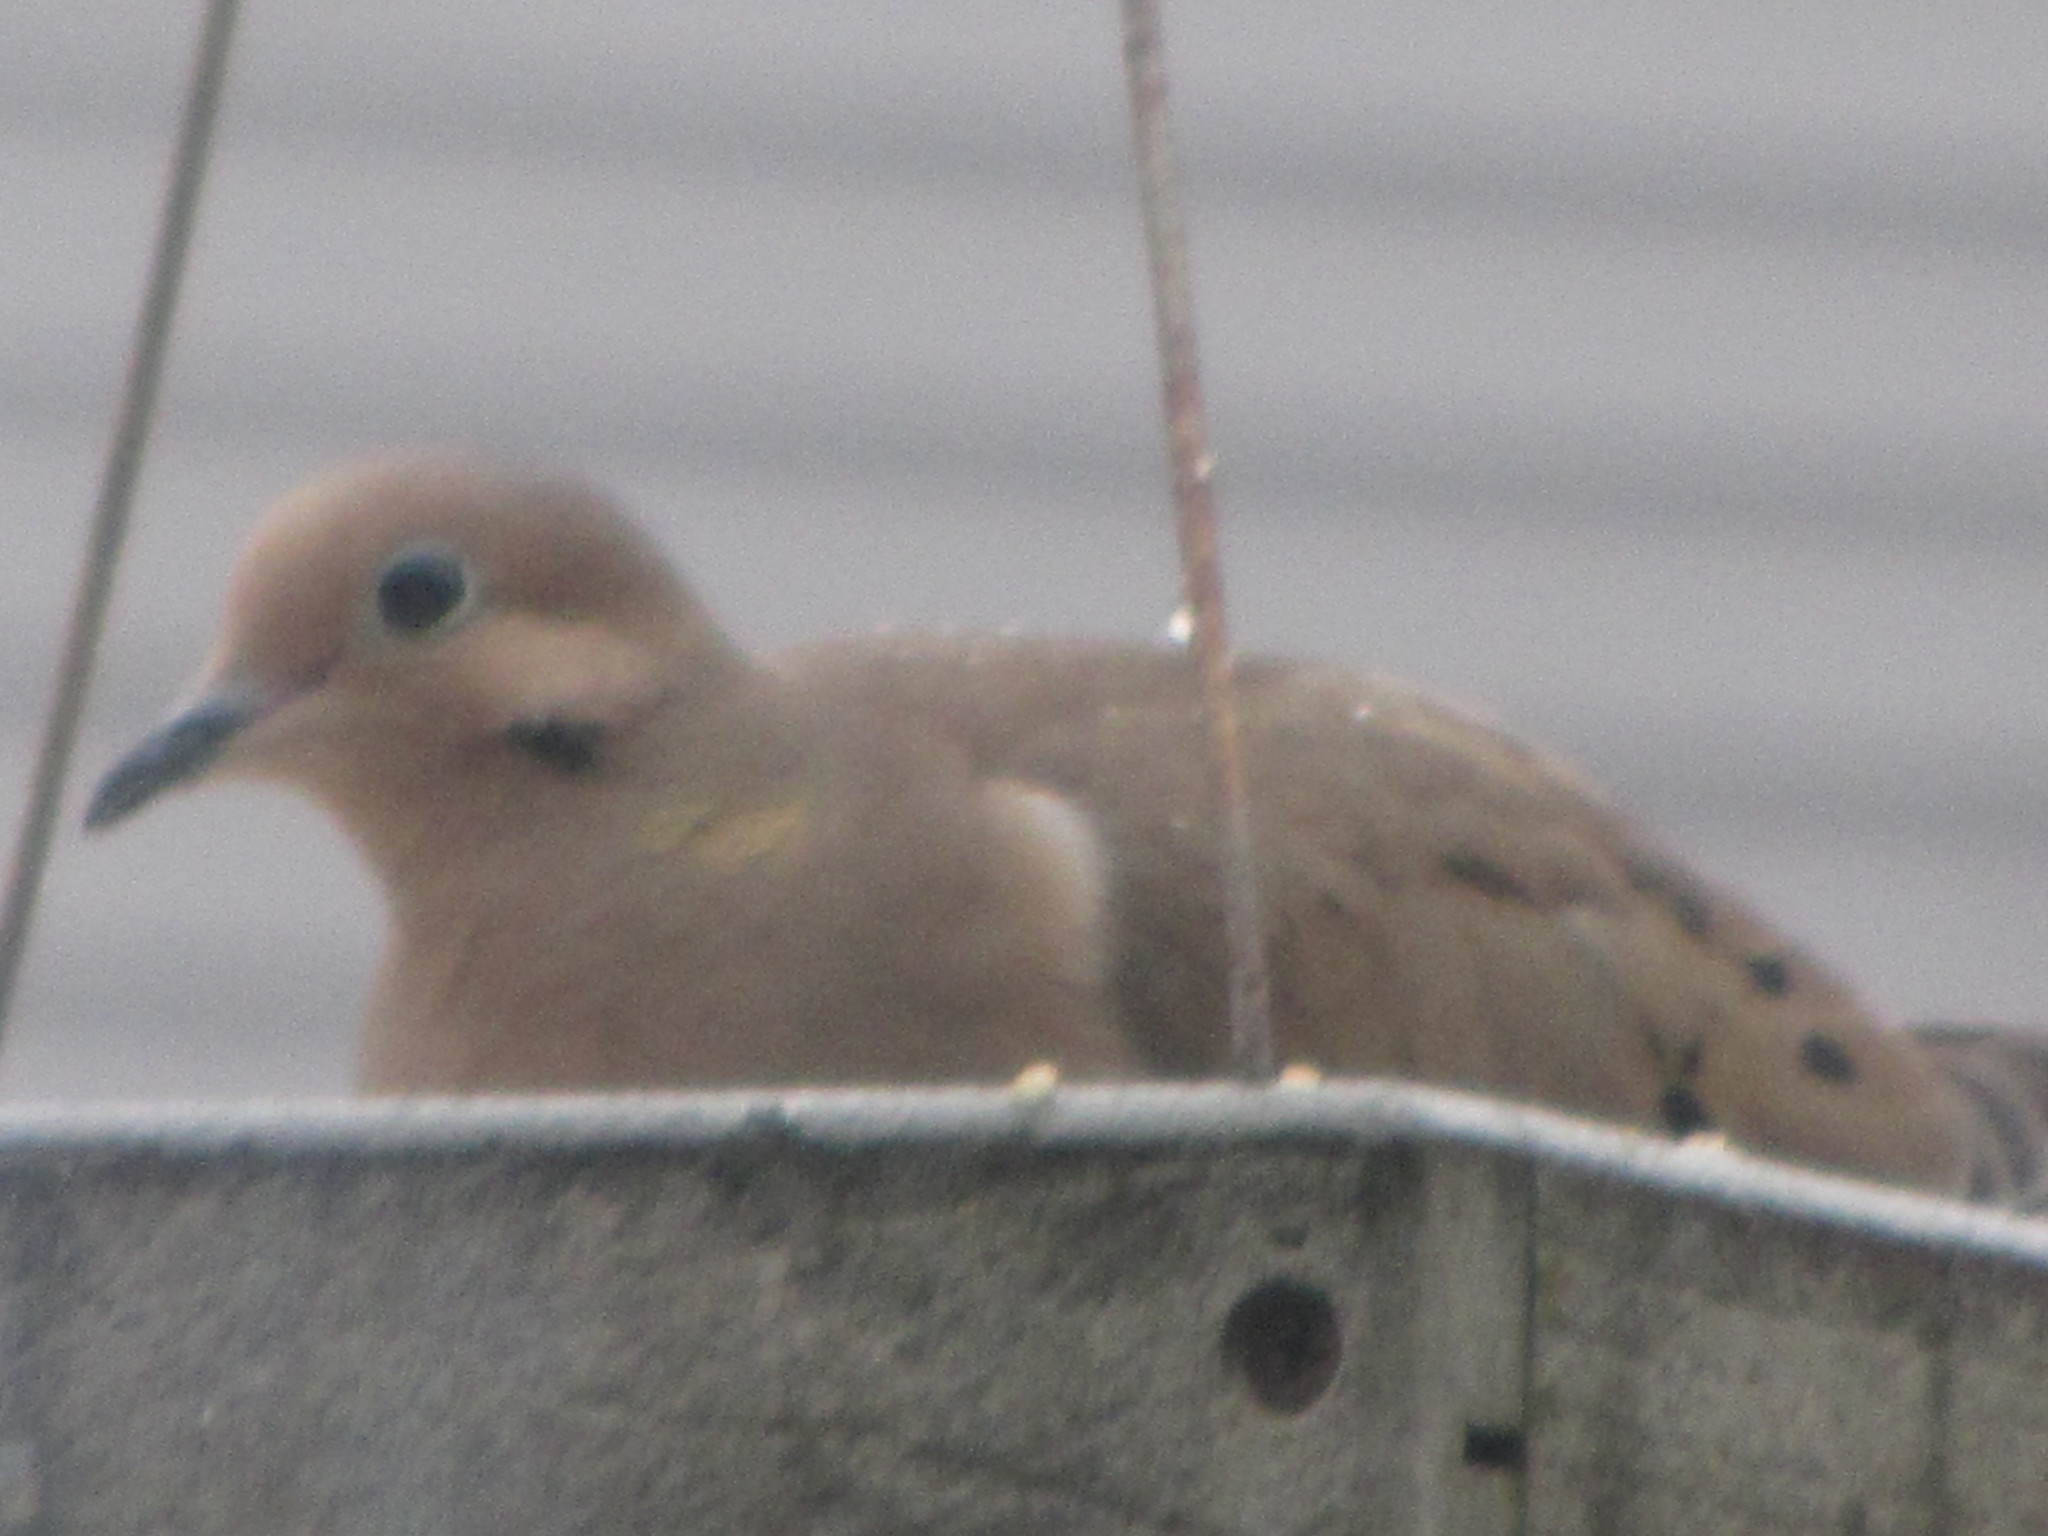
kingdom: Animalia
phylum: Chordata
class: Aves
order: Columbiformes
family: Columbidae
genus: Zenaida
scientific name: Zenaida macroura
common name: Mourning dove
